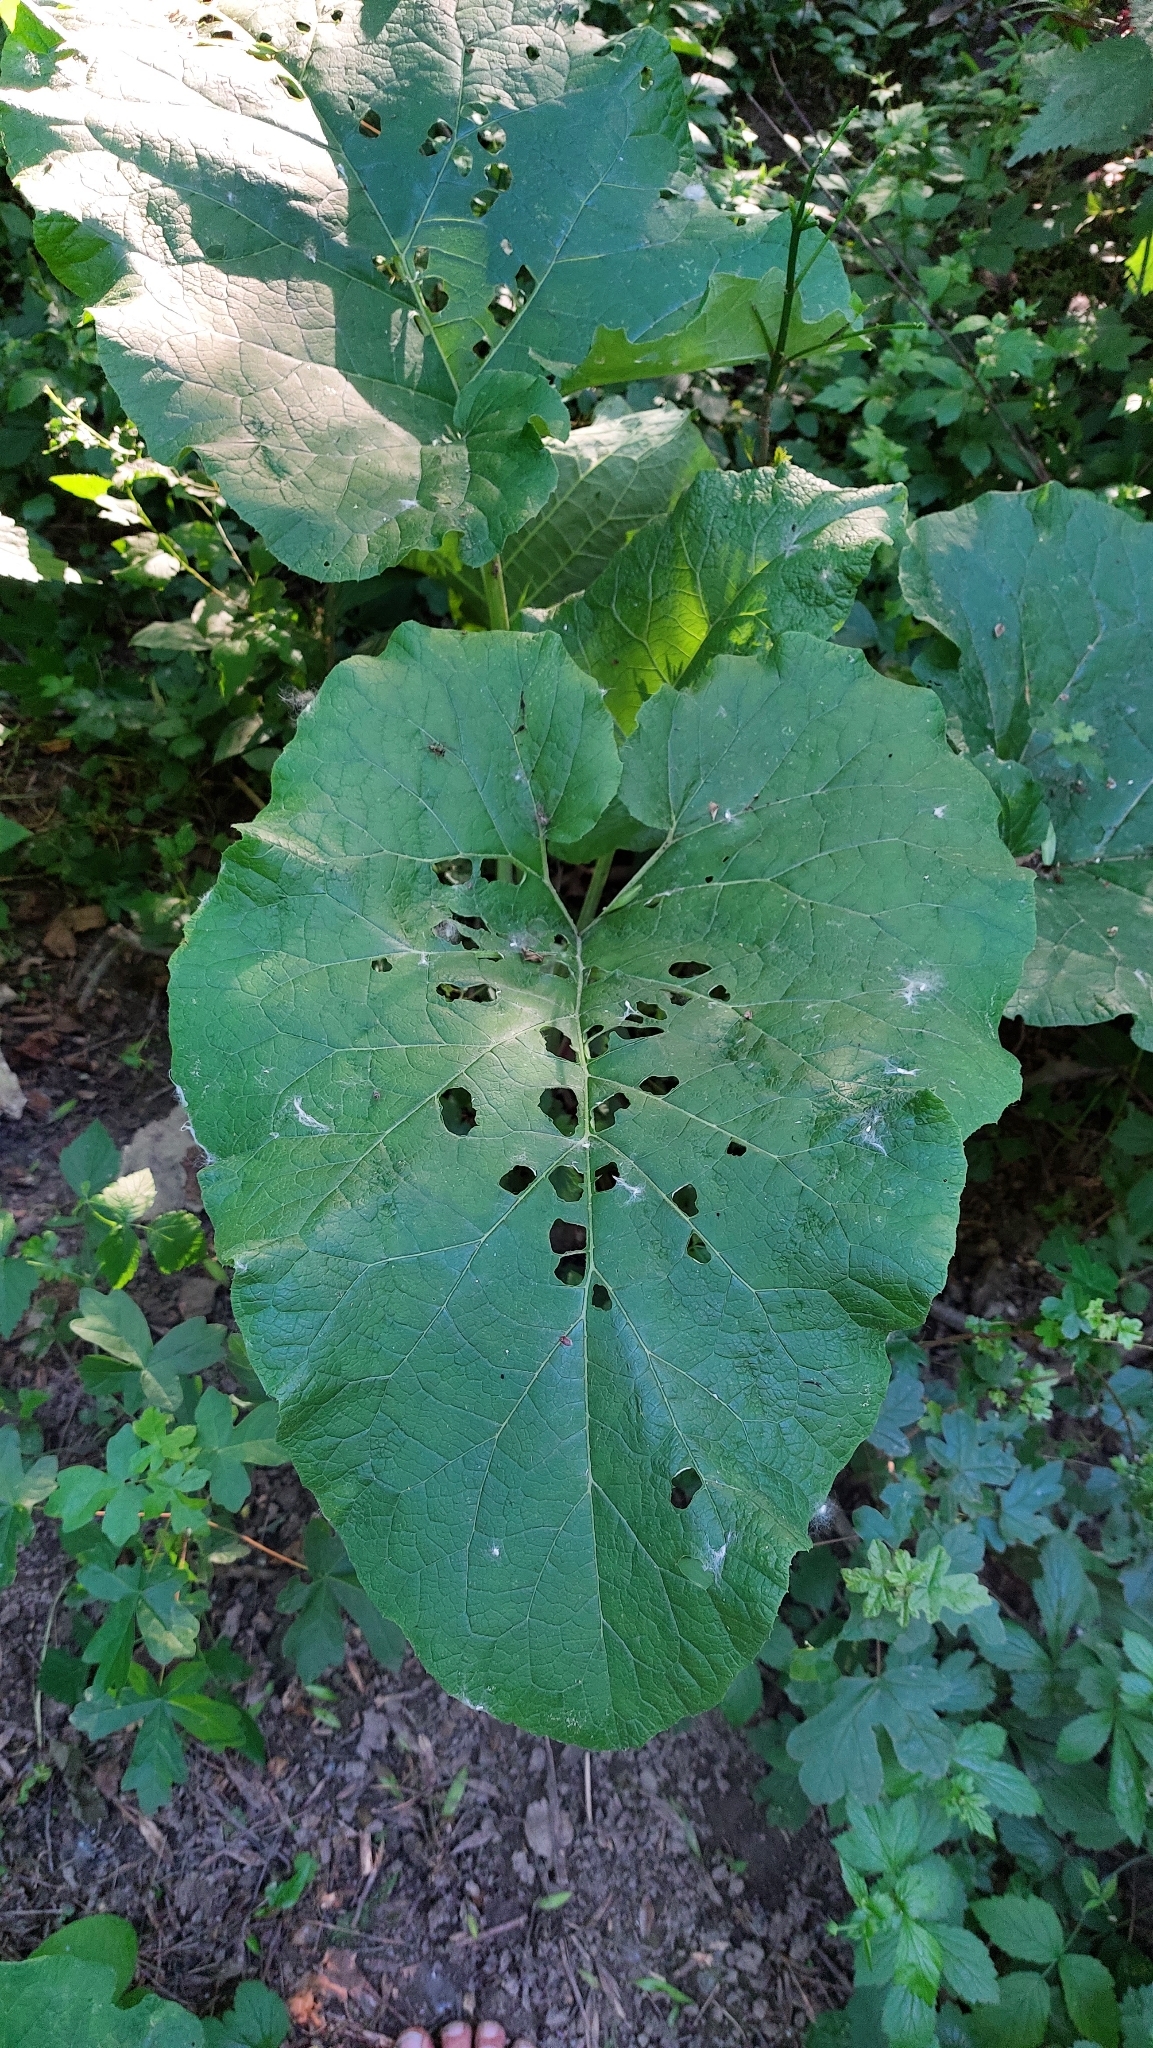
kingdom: Plantae
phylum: Tracheophyta
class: Magnoliopsida
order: Asterales
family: Asteraceae
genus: Arctium
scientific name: Arctium
